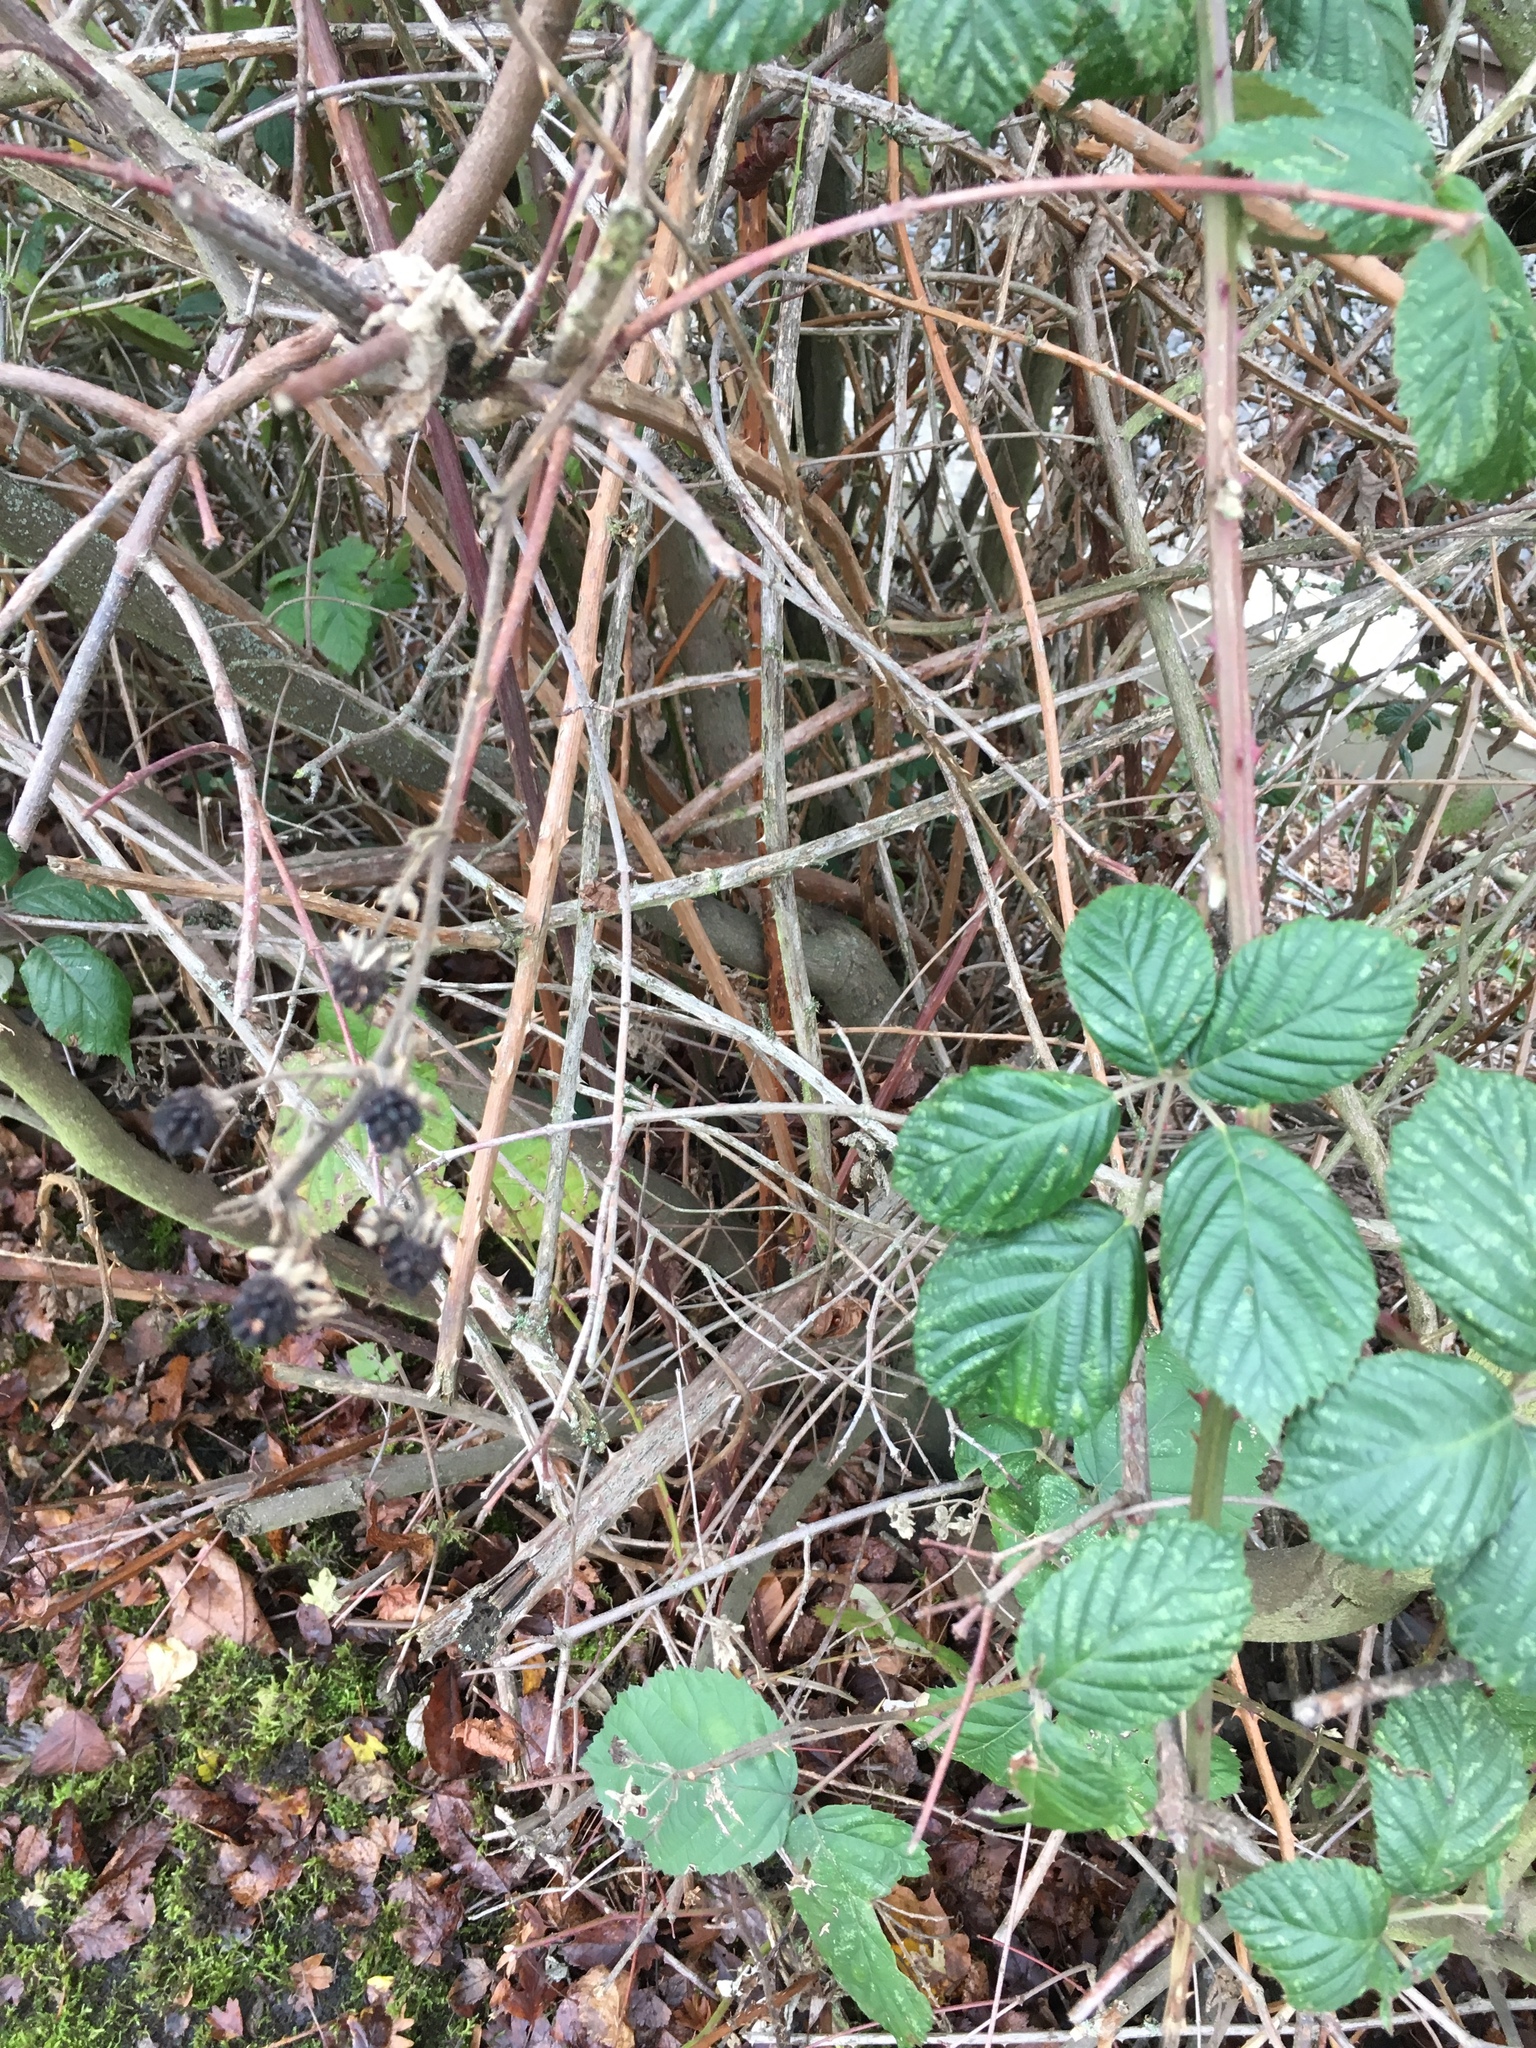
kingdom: Plantae
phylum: Tracheophyta
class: Magnoliopsida
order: Rosales
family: Rosaceae
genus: Rubus
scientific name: Rubus armeniacus
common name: Himalayan blackberry
